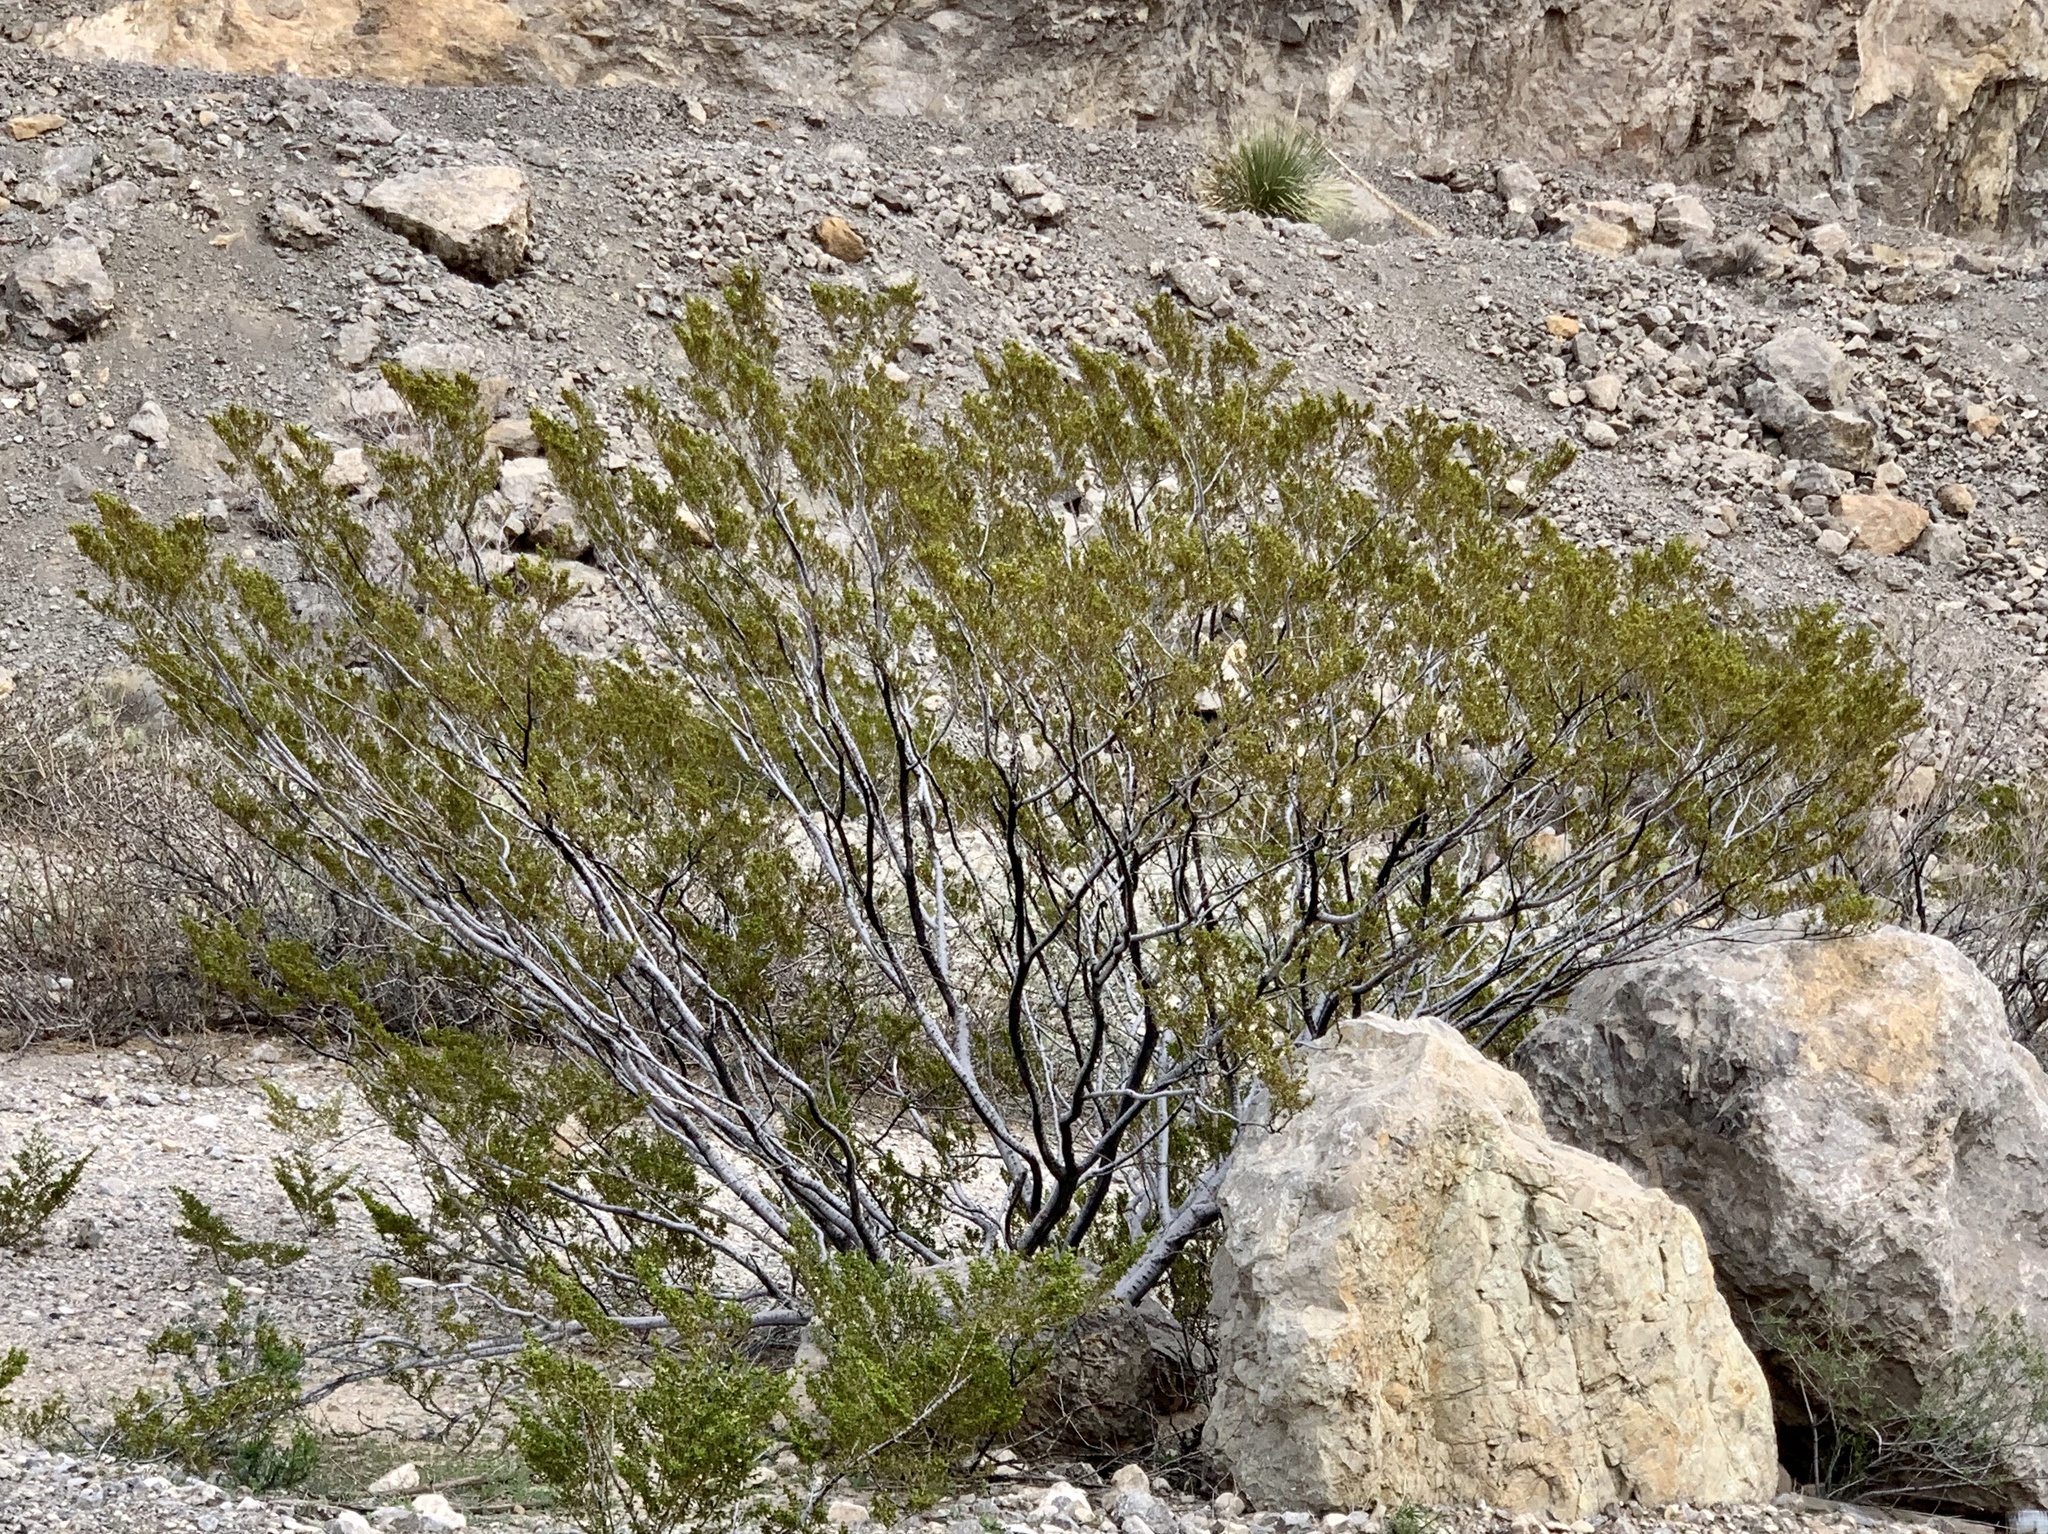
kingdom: Plantae
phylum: Tracheophyta
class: Magnoliopsida
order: Zygophyllales
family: Zygophyllaceae
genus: Larrea
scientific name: Larrea tridentata
